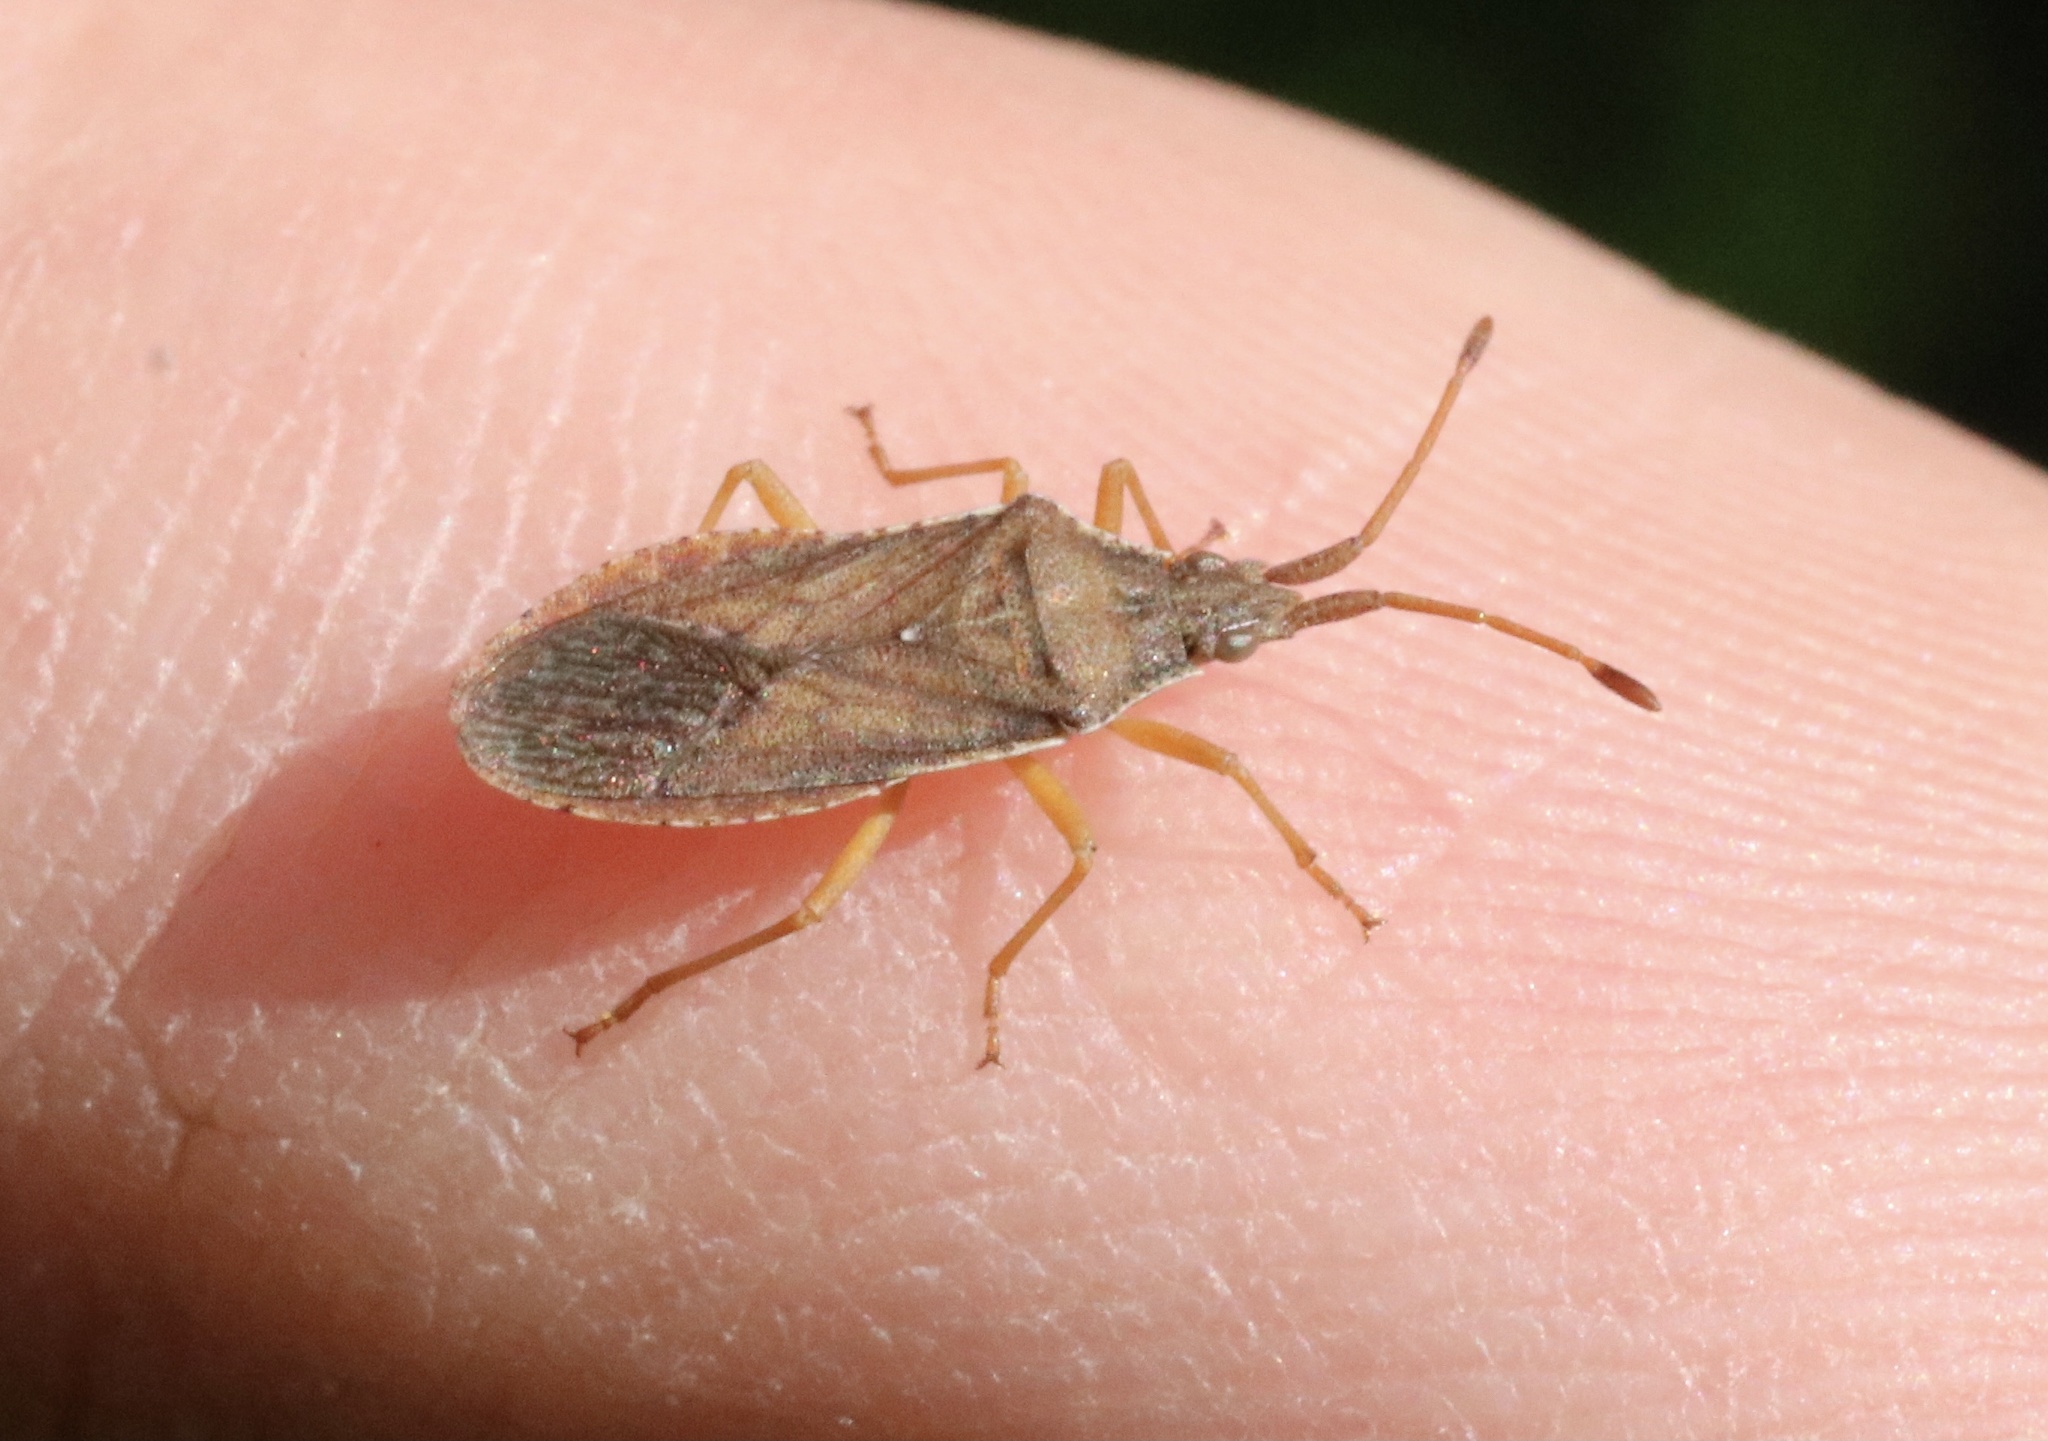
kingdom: Animalia
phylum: Arthropoda
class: Insecta
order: Hemiptera
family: Coreidae
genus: Althos
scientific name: Althos sinuaticollis
